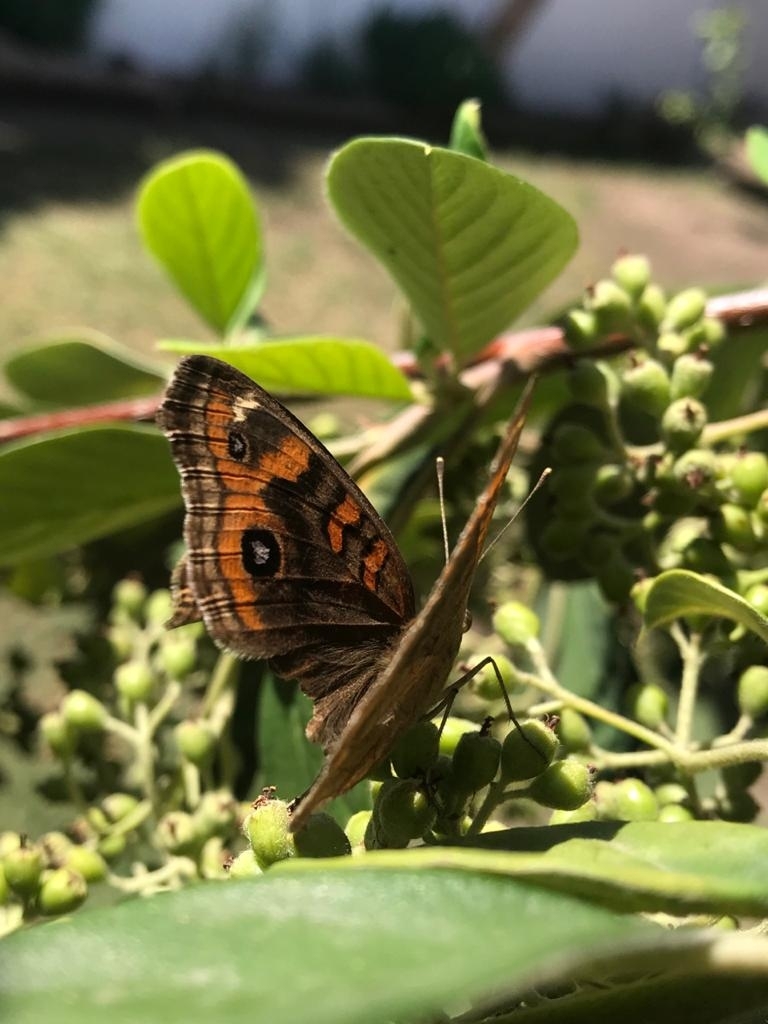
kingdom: Animalia
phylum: Arthropoda
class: Insecta
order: Lepidoptera
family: Nymphalidae
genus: Junonia
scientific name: Junonia lavinia
